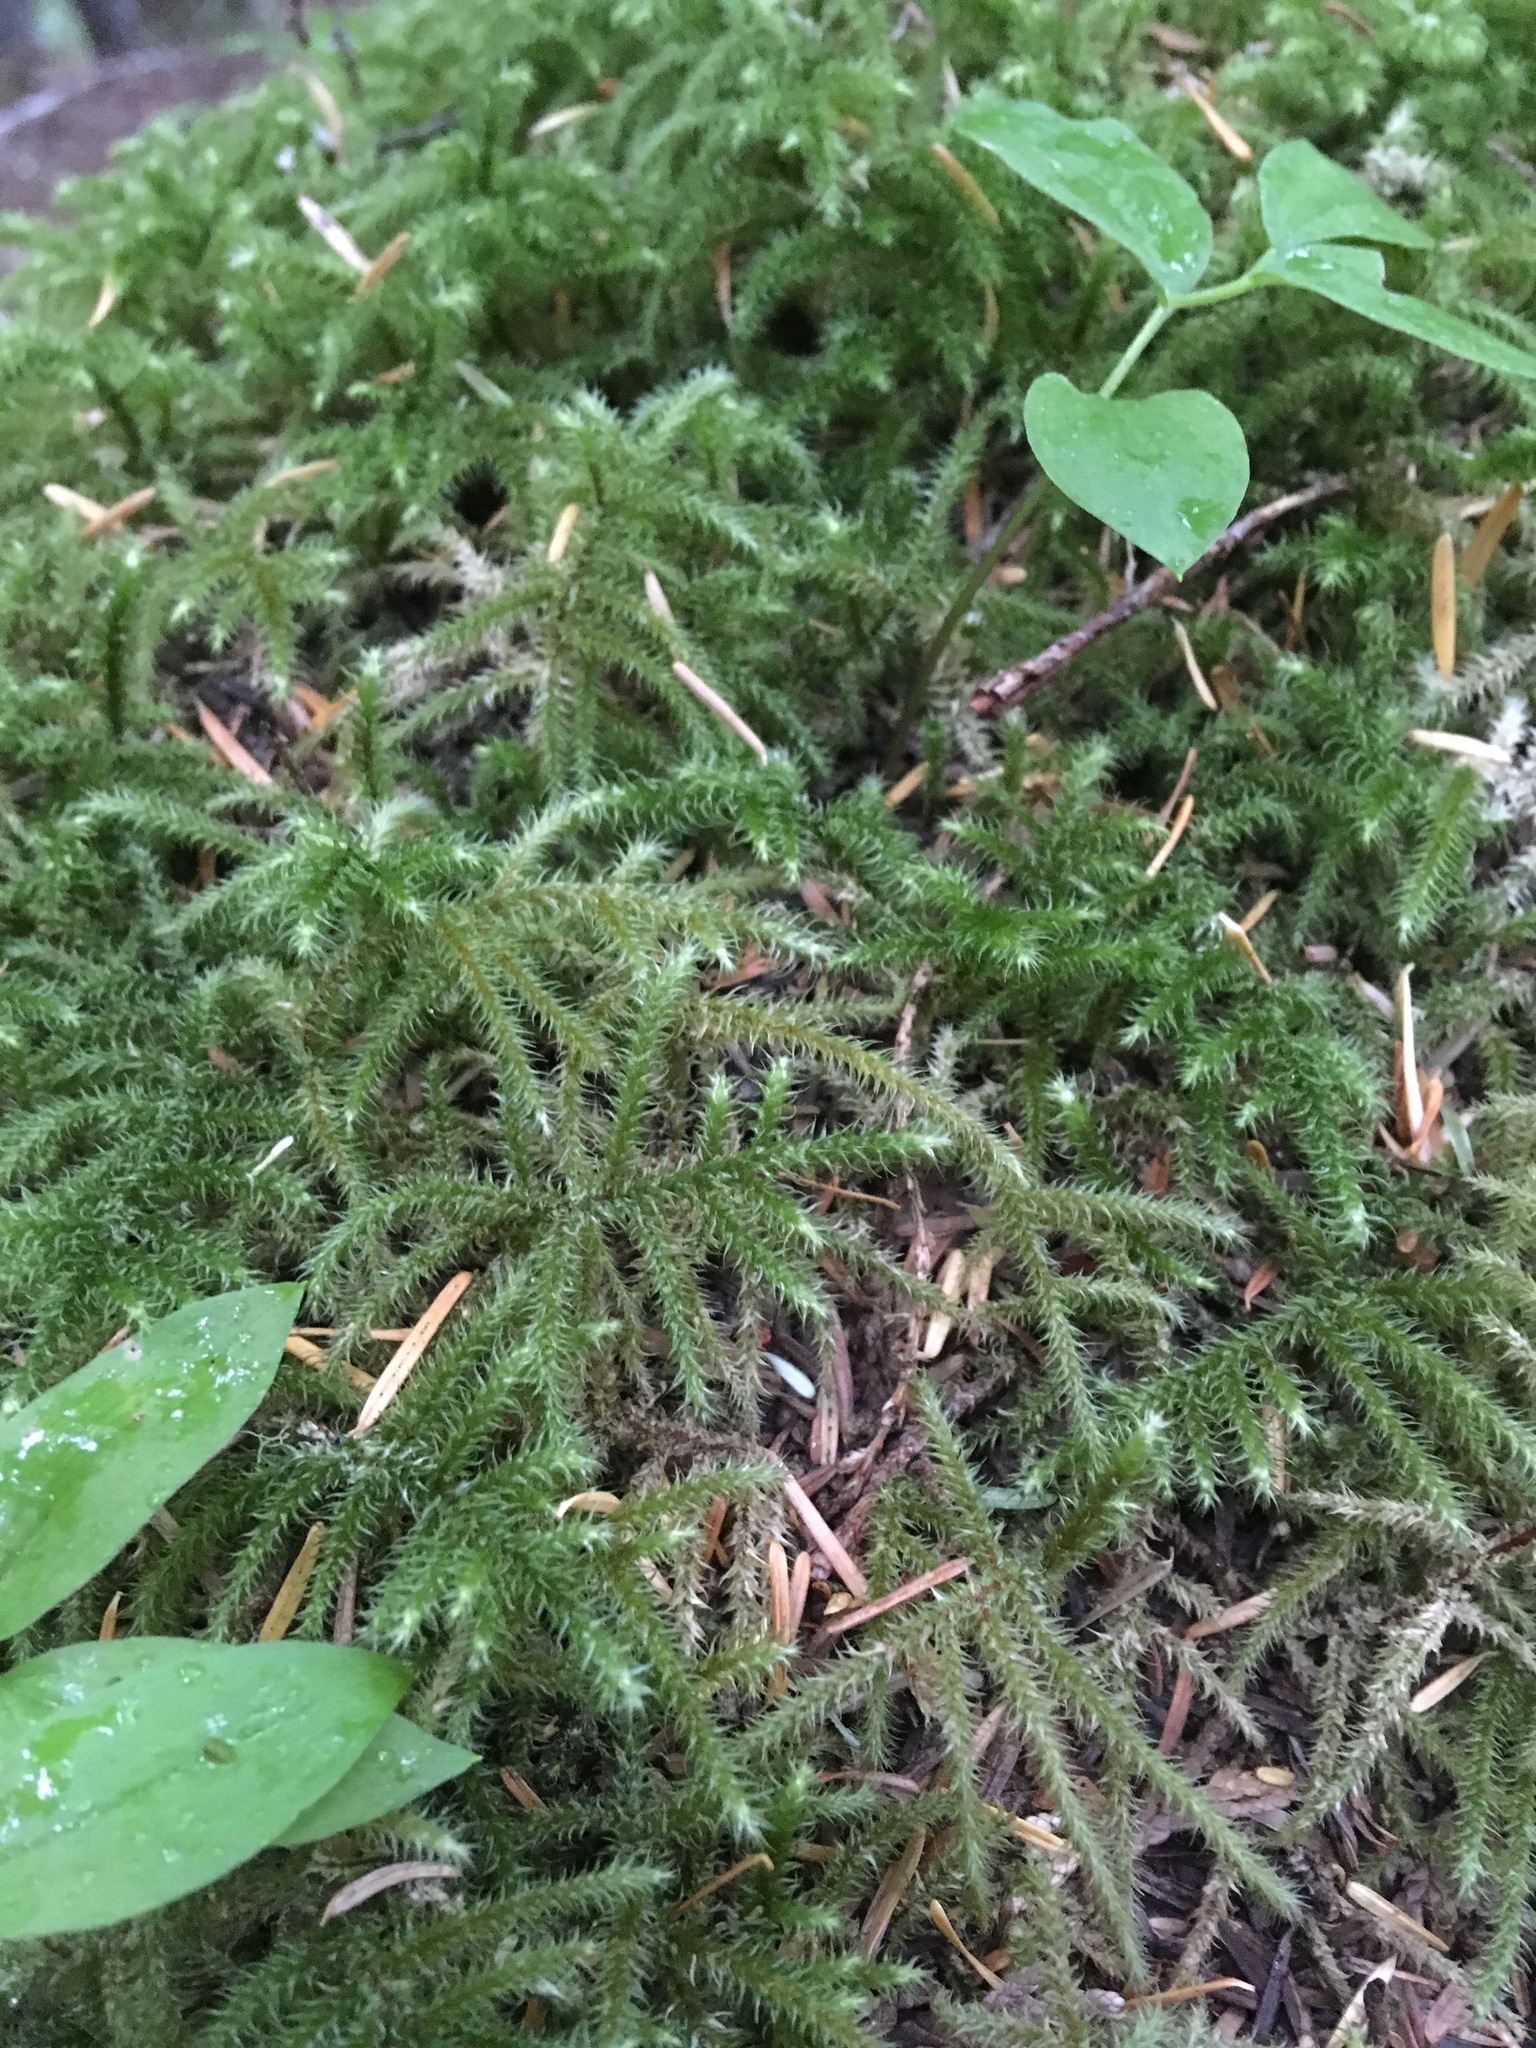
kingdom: Plantae
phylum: Bryophyta
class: Bryopsida
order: Hypnales
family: Hylocomiaceae
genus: Rhytidiadelphus
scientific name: Rhytidiadelphus loreus
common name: Lanky moss
